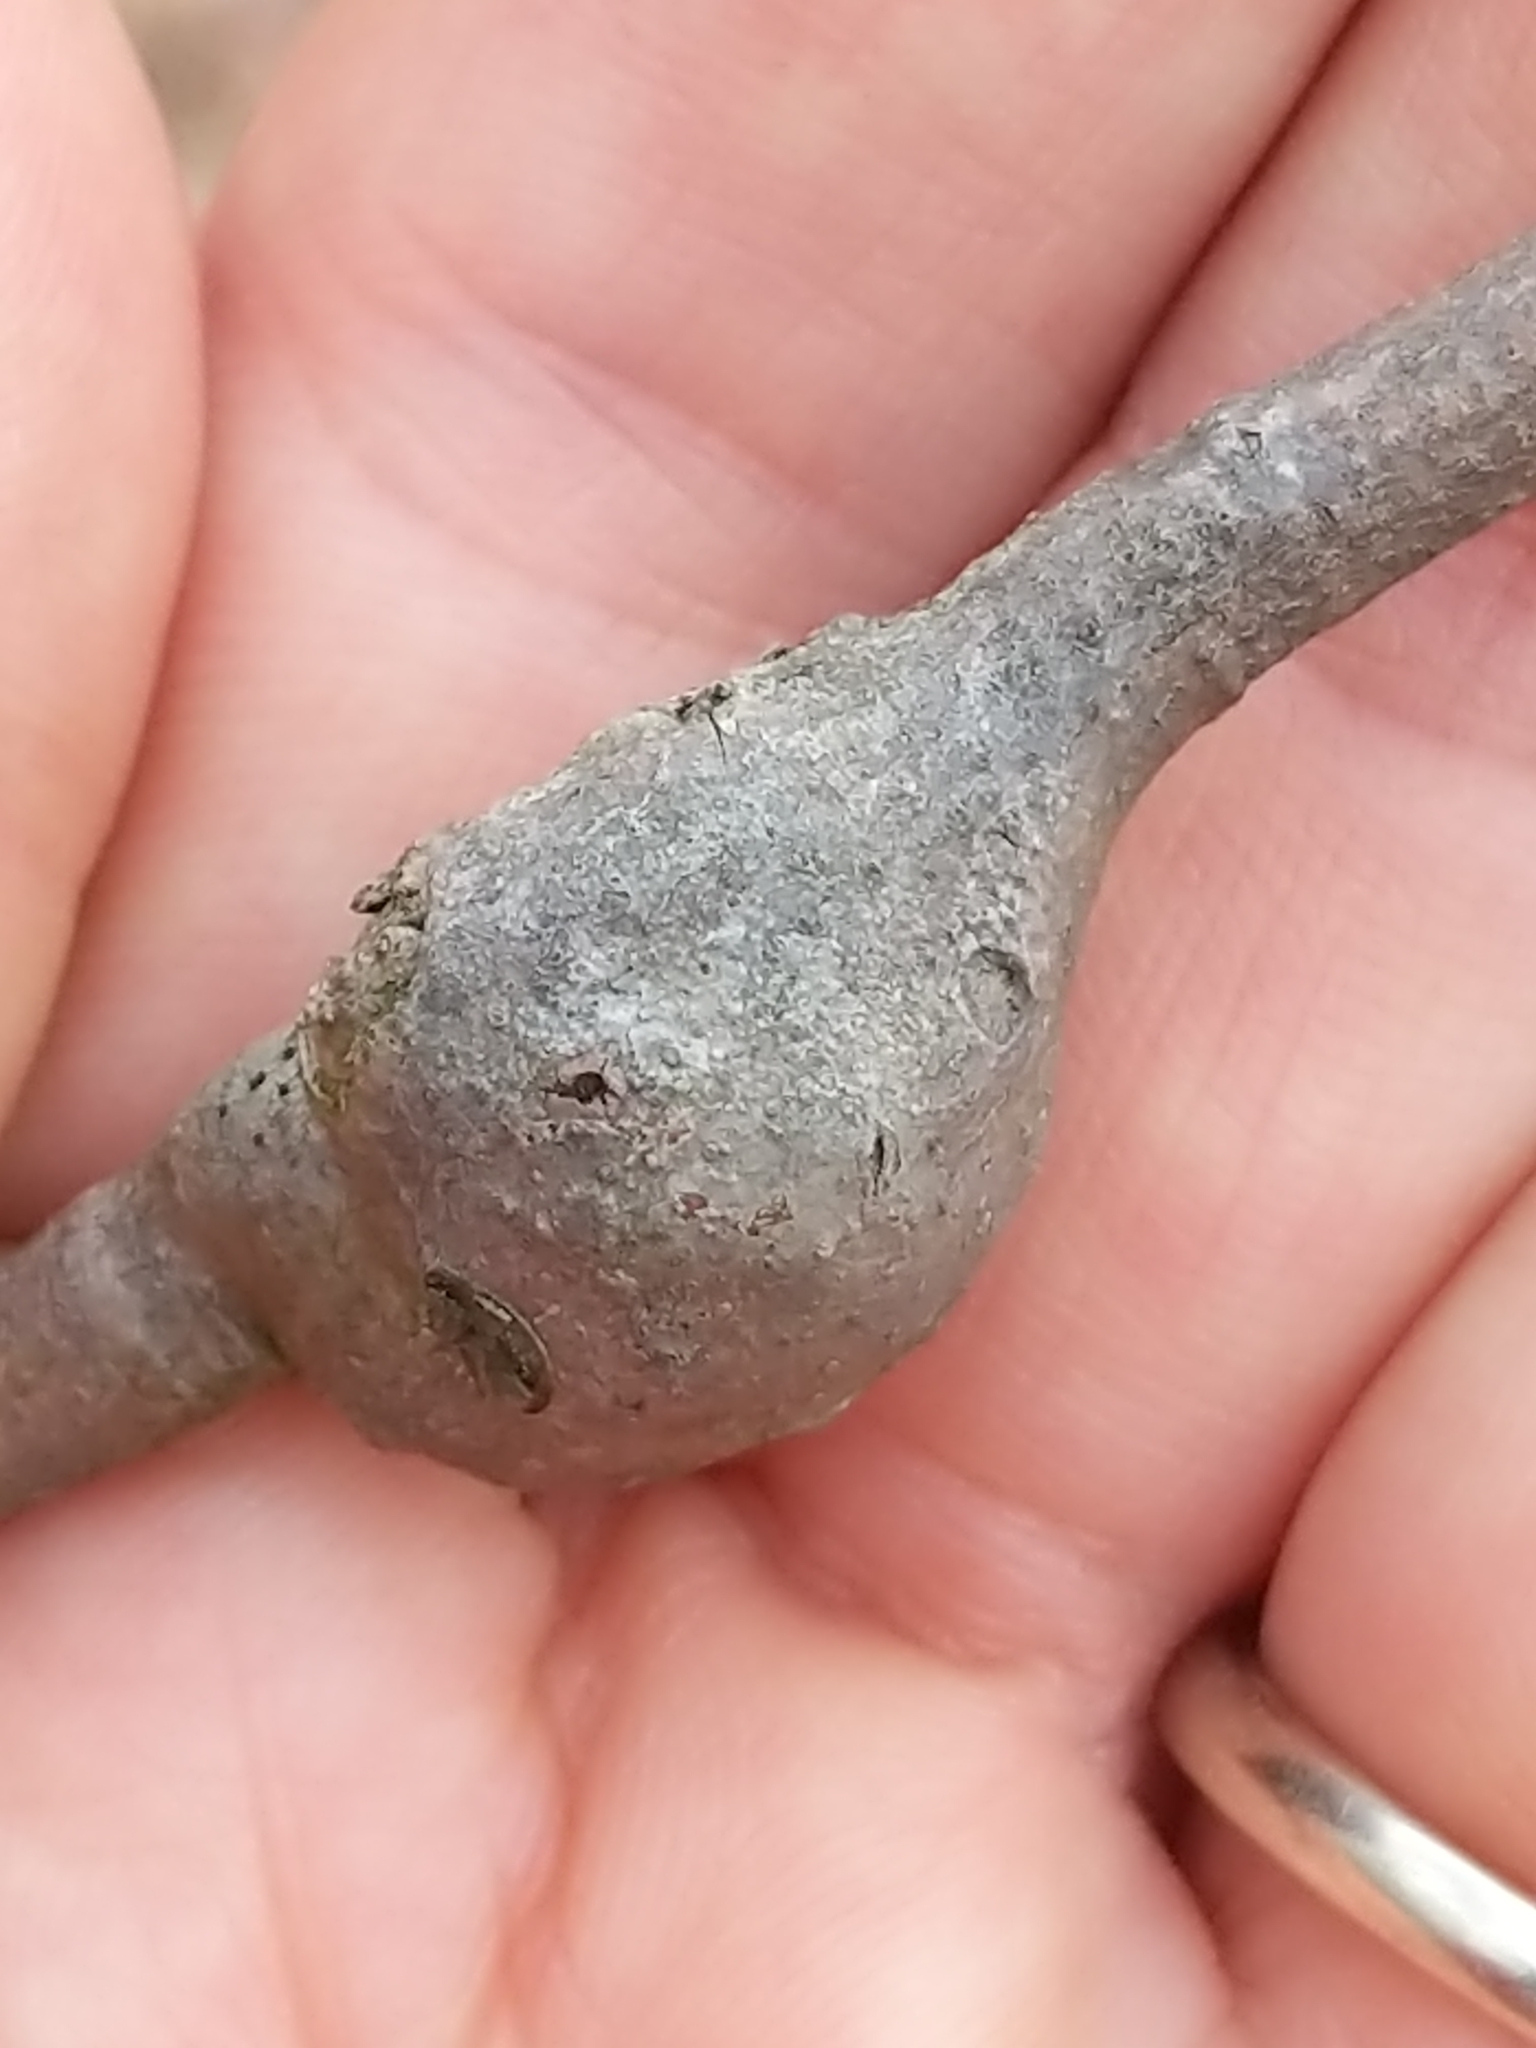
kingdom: Animalia
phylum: Arthropoda
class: Insecta
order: Hymenoptera
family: Cynipidae
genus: Zapatella
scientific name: Zapatella quercusphellos
